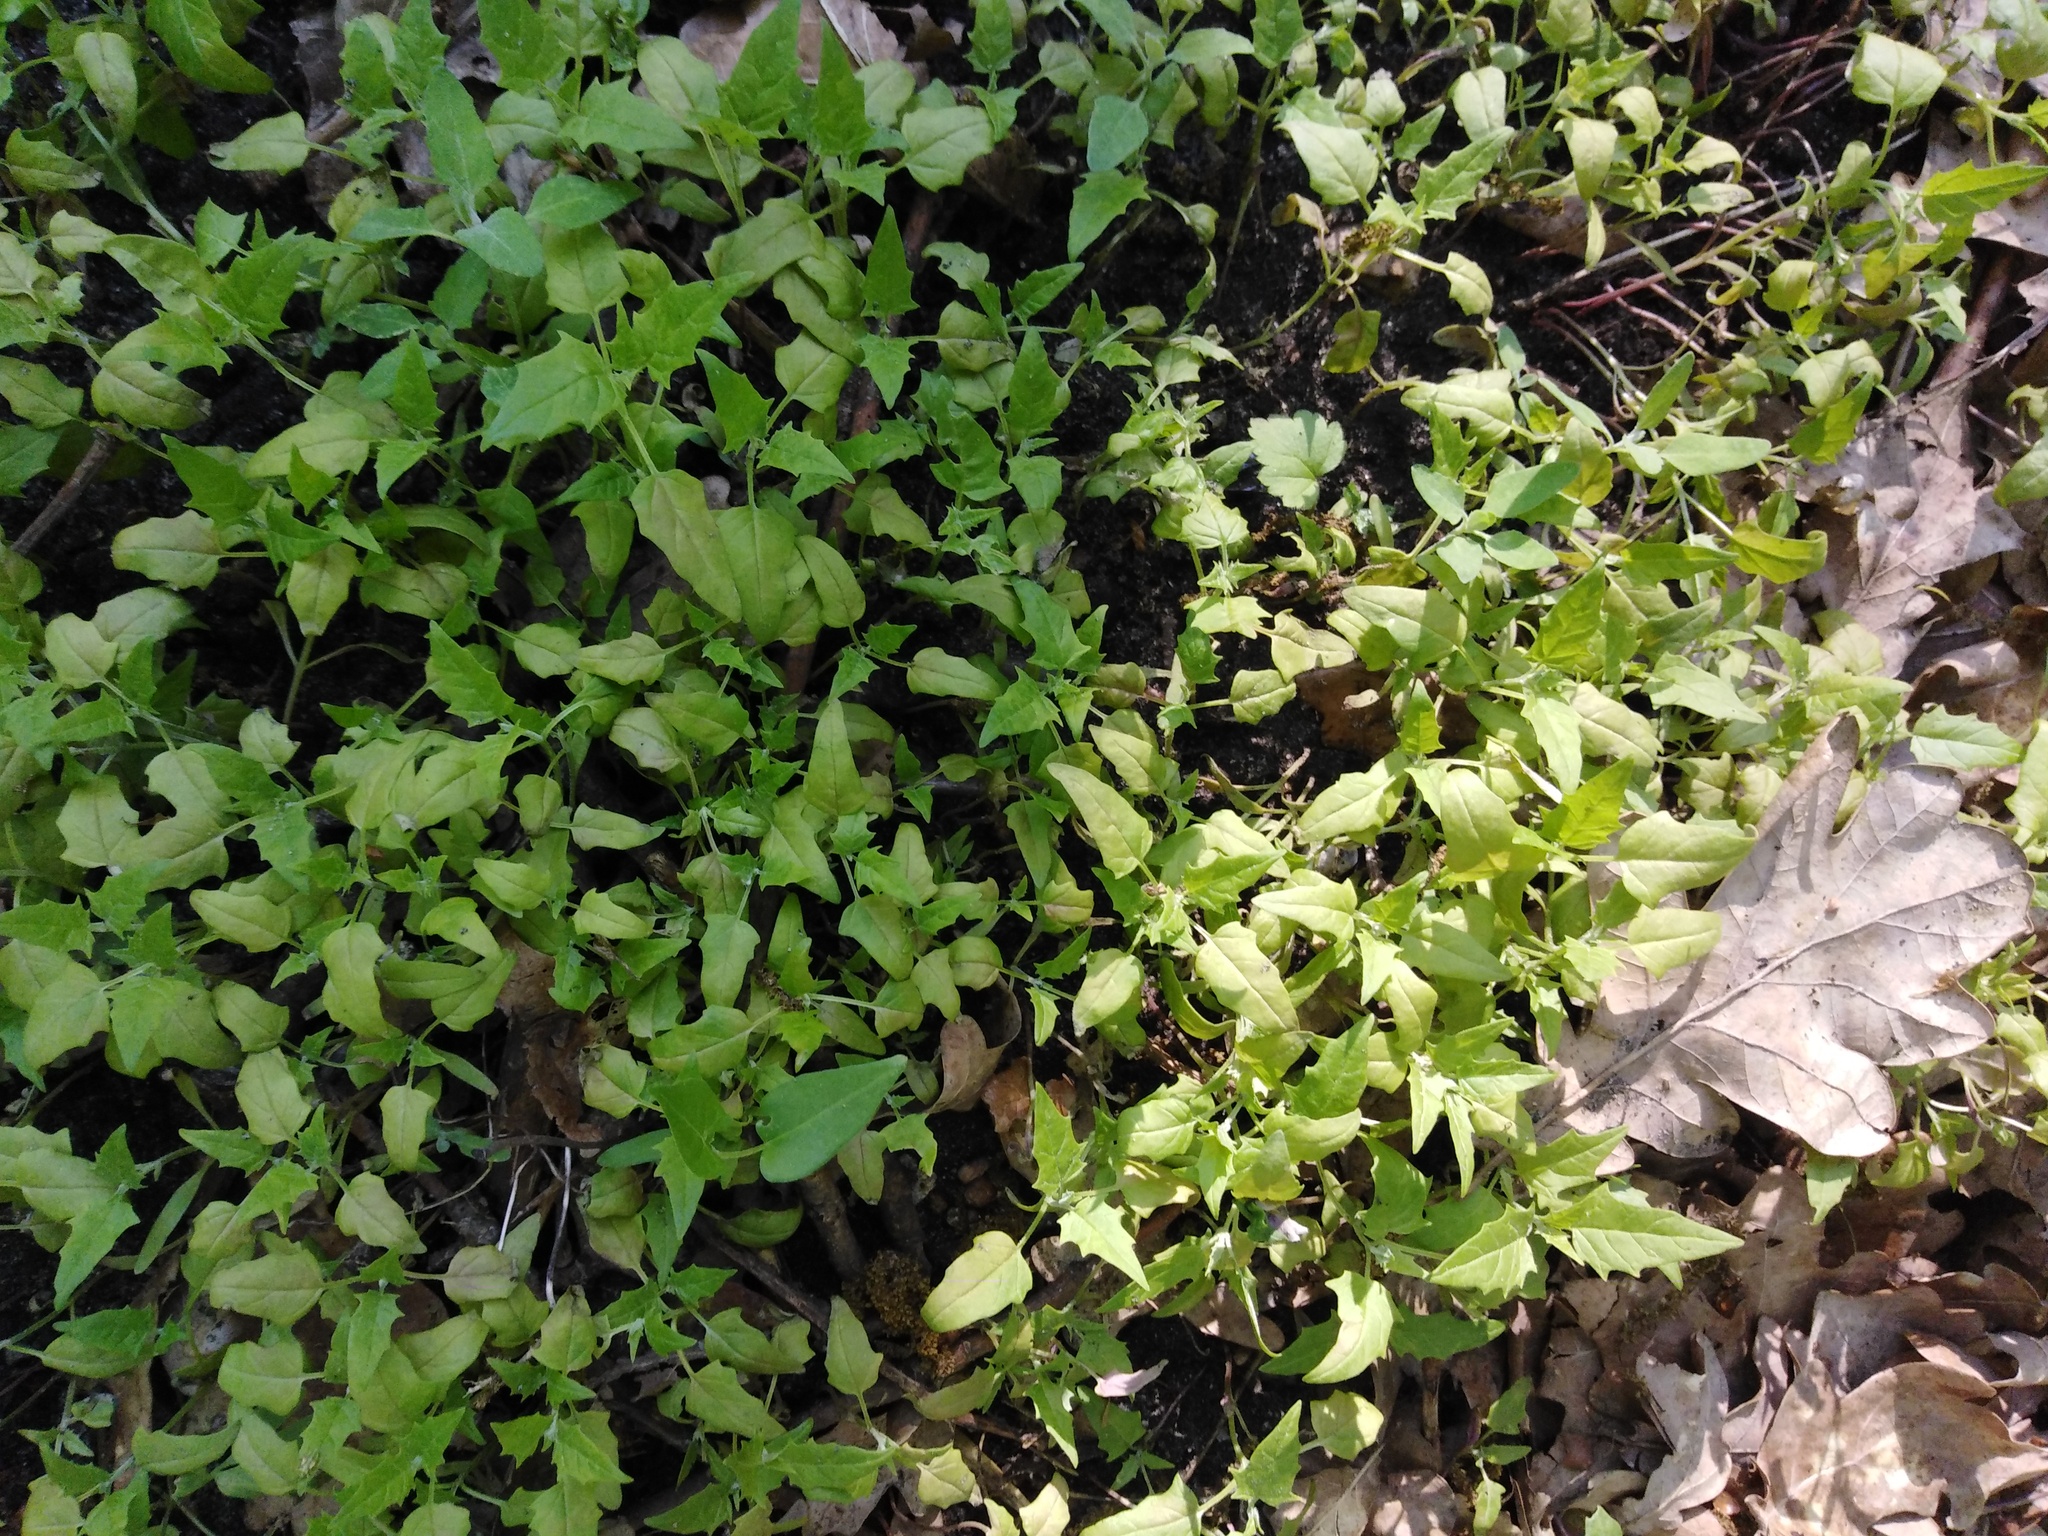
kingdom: Plantae
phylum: Tracheophyta
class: Magnoliopsida
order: Caryophyllales
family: Amaranthaceae
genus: Chenopodiastrum
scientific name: Chenopodiastrum hybridum
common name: Mapleleaf goosefoot
